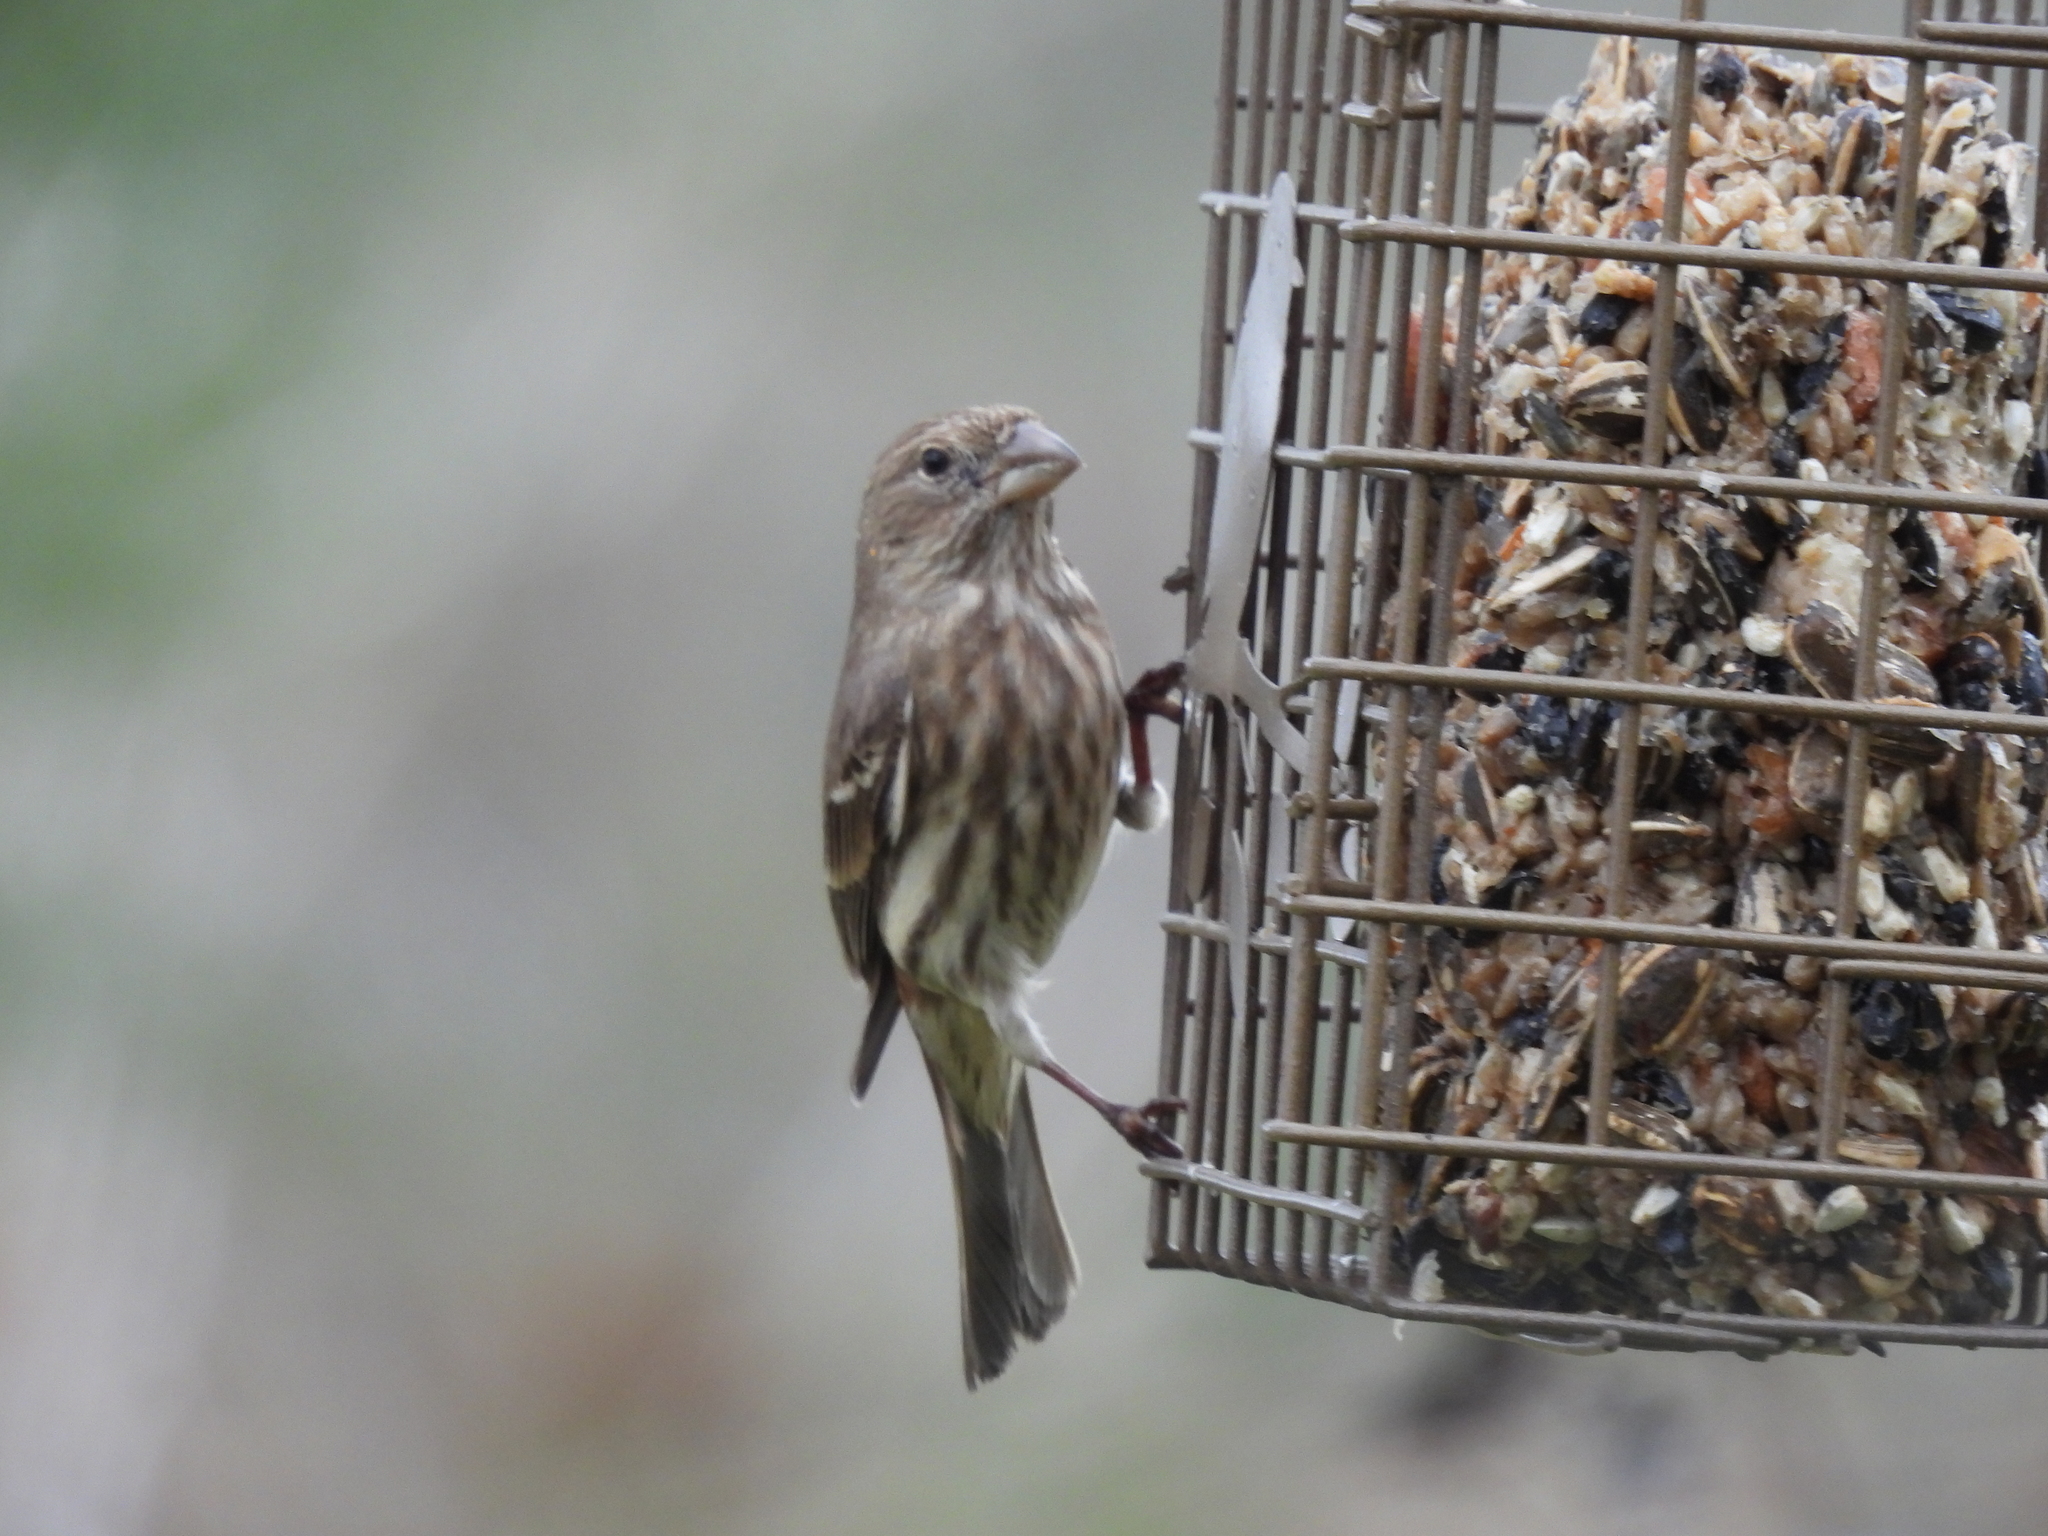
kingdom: Animalia
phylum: Chordata
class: Aves
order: Passeriformes
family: Fringillidae
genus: Haemorhous
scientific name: Haemorhous mexicanus
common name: House finch
